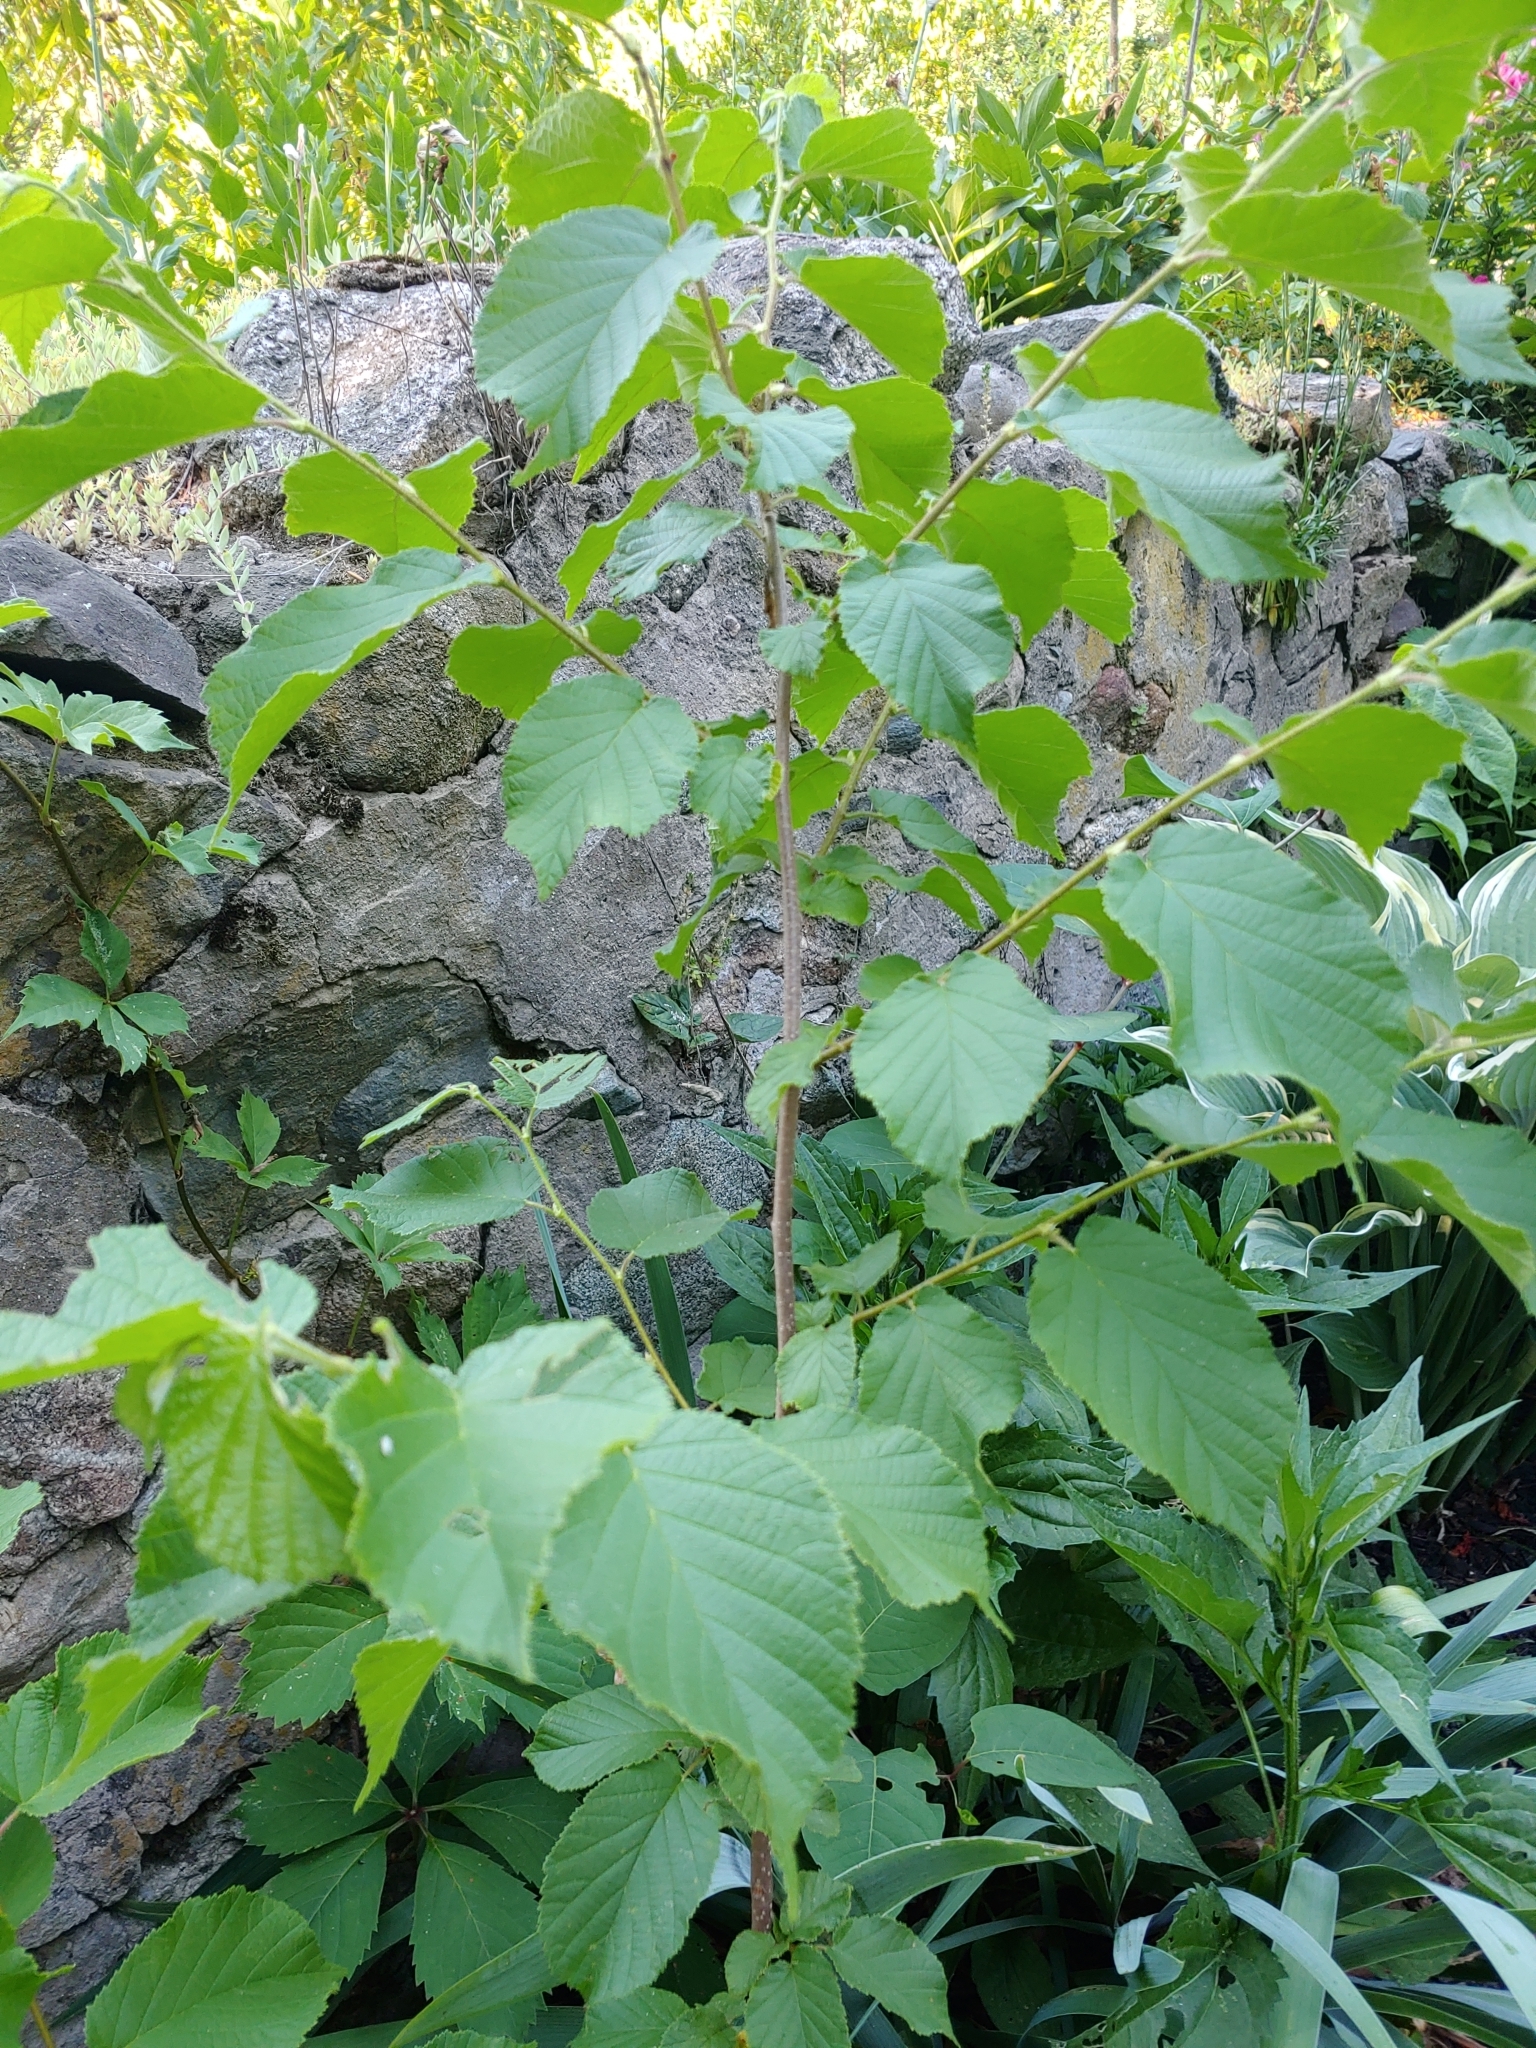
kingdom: Plantae
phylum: Tracheophyta
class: Magnoliopsida
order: Fagales
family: Betulaceae
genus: Corylus
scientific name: Corylus americana
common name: American hazel
